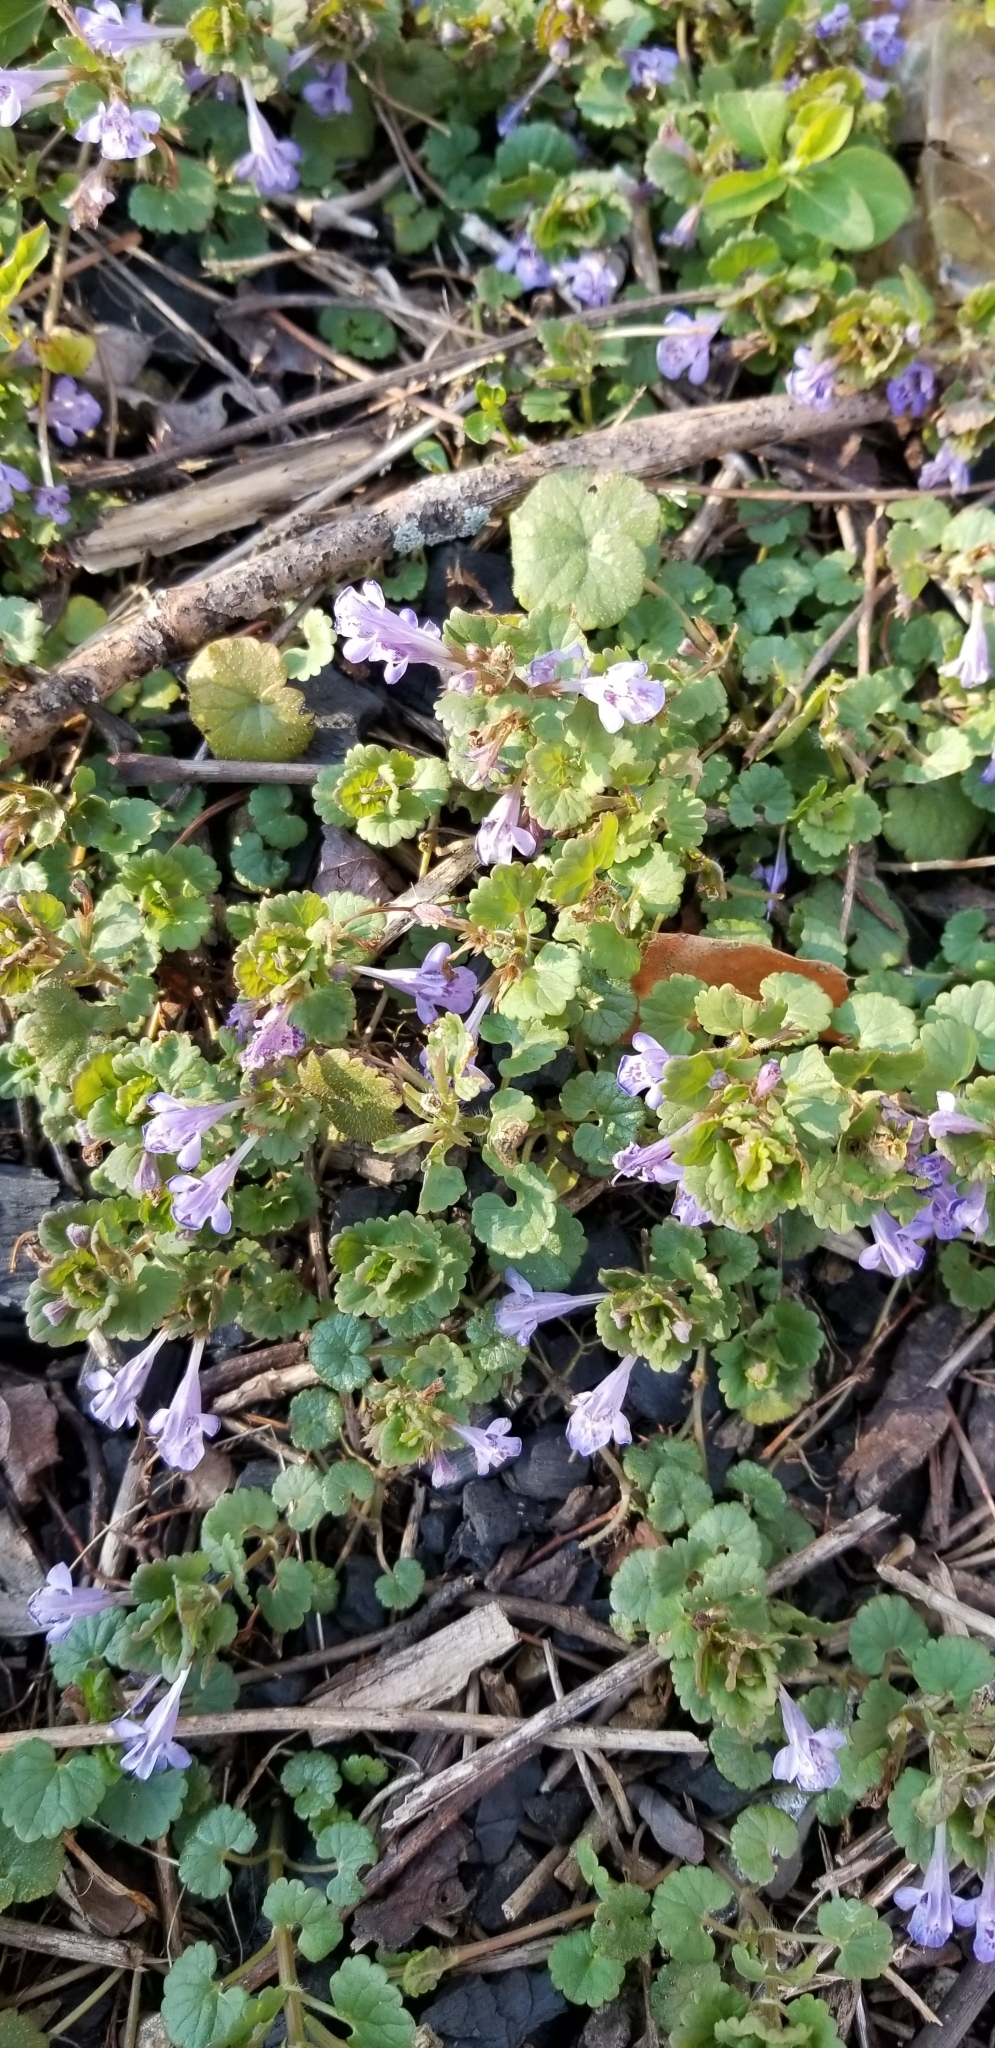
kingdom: Plantae
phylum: Tracheophyta
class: Magnoliopsida
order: Lamiales
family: Lamiaceae
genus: Glechoma
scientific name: Glechoma hederacea
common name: Ground ivy
